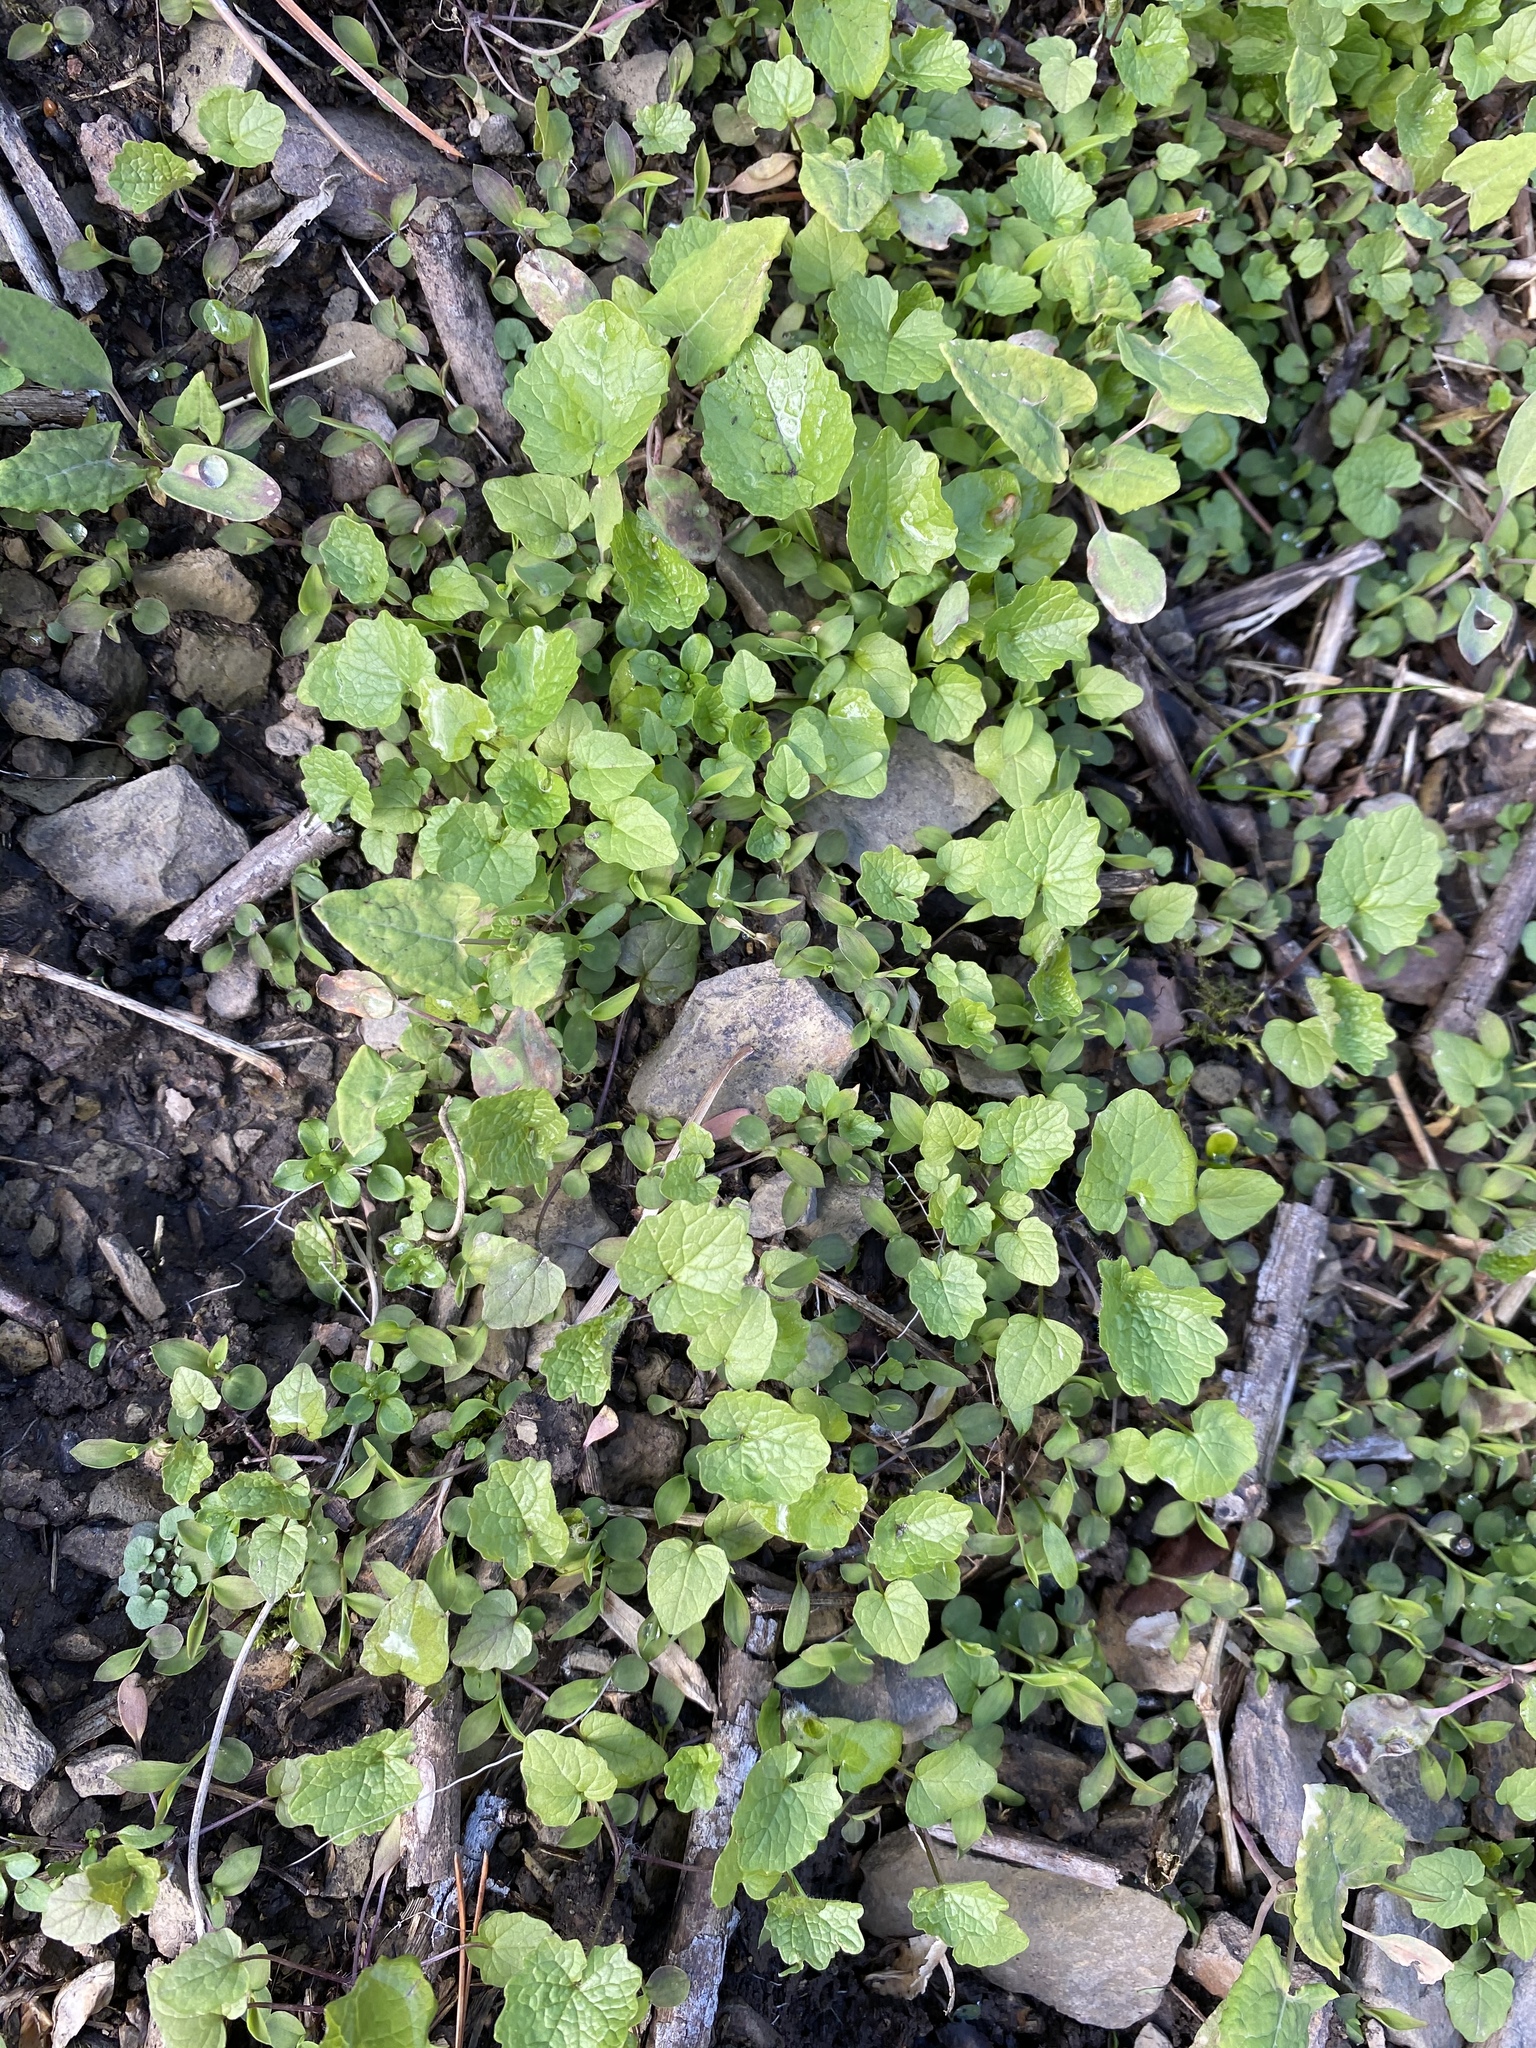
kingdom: Plantae
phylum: Tracheophyta
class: Magnoliopsida
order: Brassicales
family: Brassicaceae
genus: Alliaria
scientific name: Alliaria petiolata
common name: Garlic mustard
